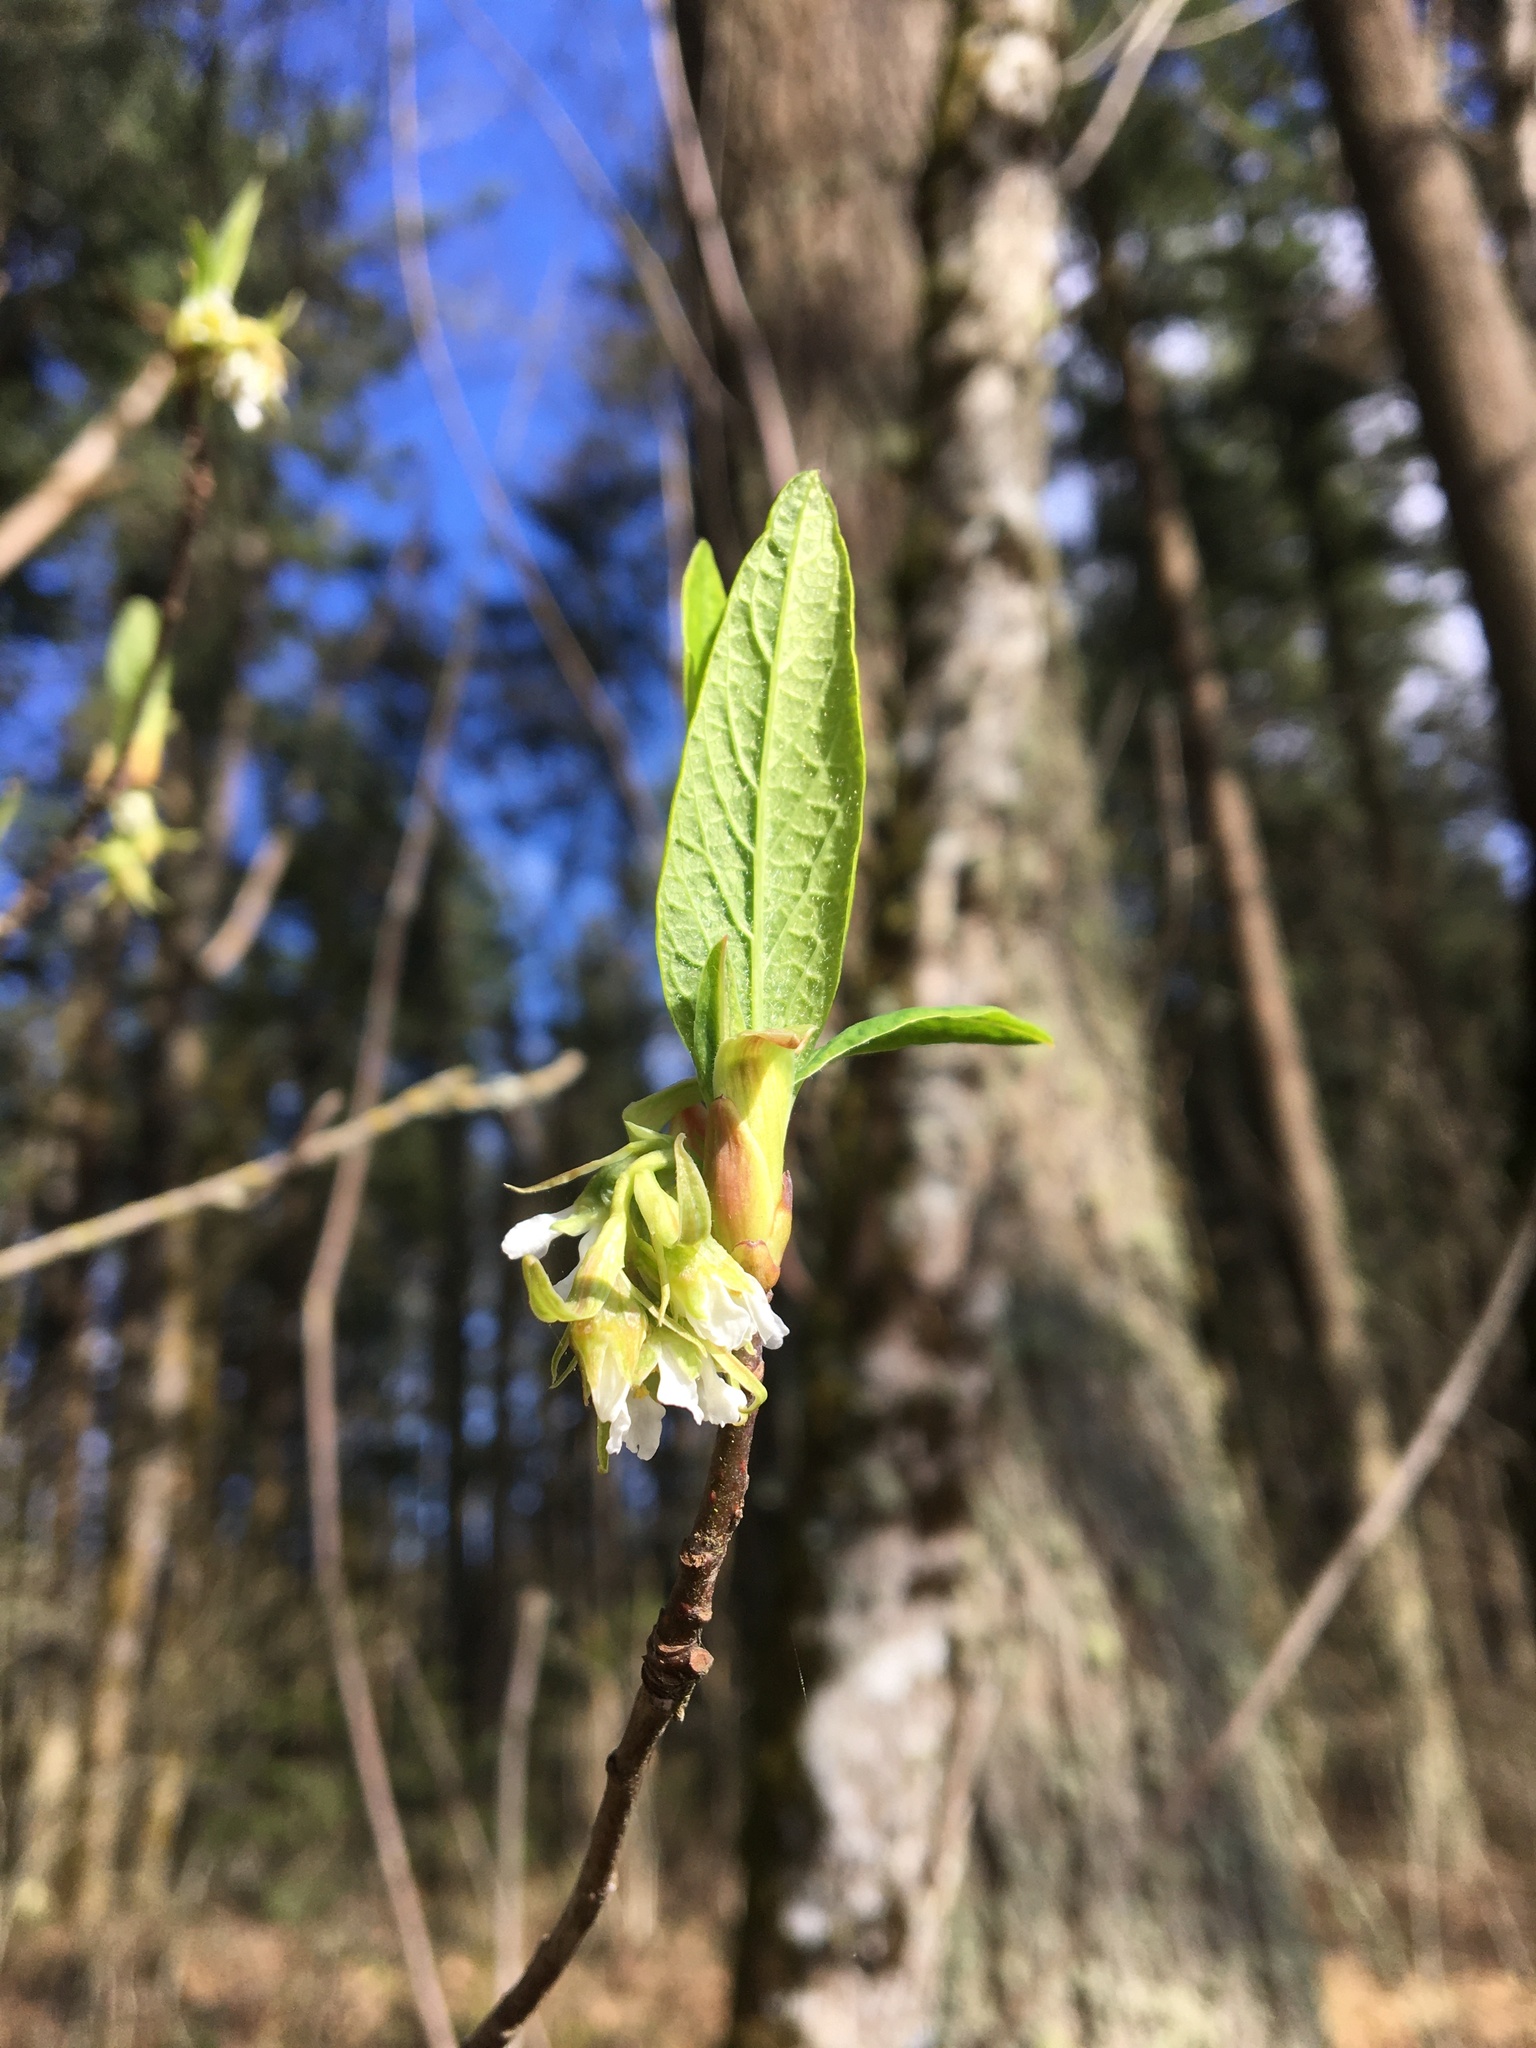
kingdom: Plantae
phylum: Tracheophyta
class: Magnoliopsida
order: Rosales
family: Rosaceae
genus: Oemleria
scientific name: Oemleria cerasiformis
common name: Osoberry
